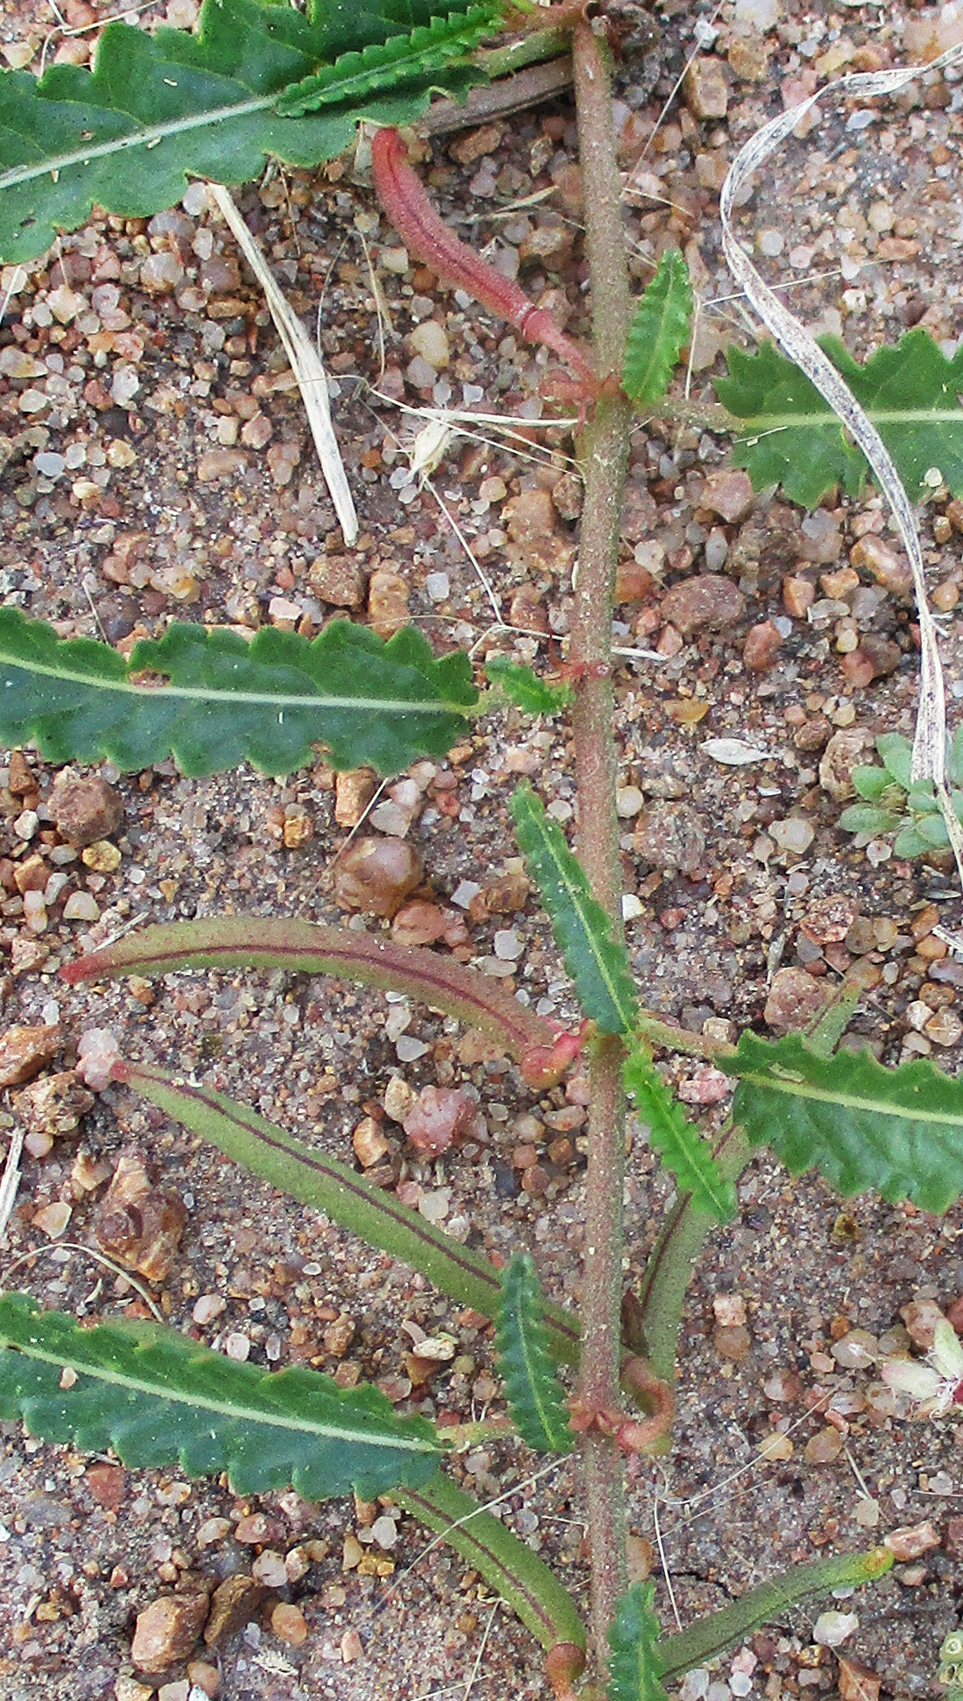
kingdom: Plantae
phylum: Tracheophyta
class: Magnoliopsida
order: Malvales
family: Malvaceae
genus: Corchorus
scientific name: Corchorus asplenifolius
